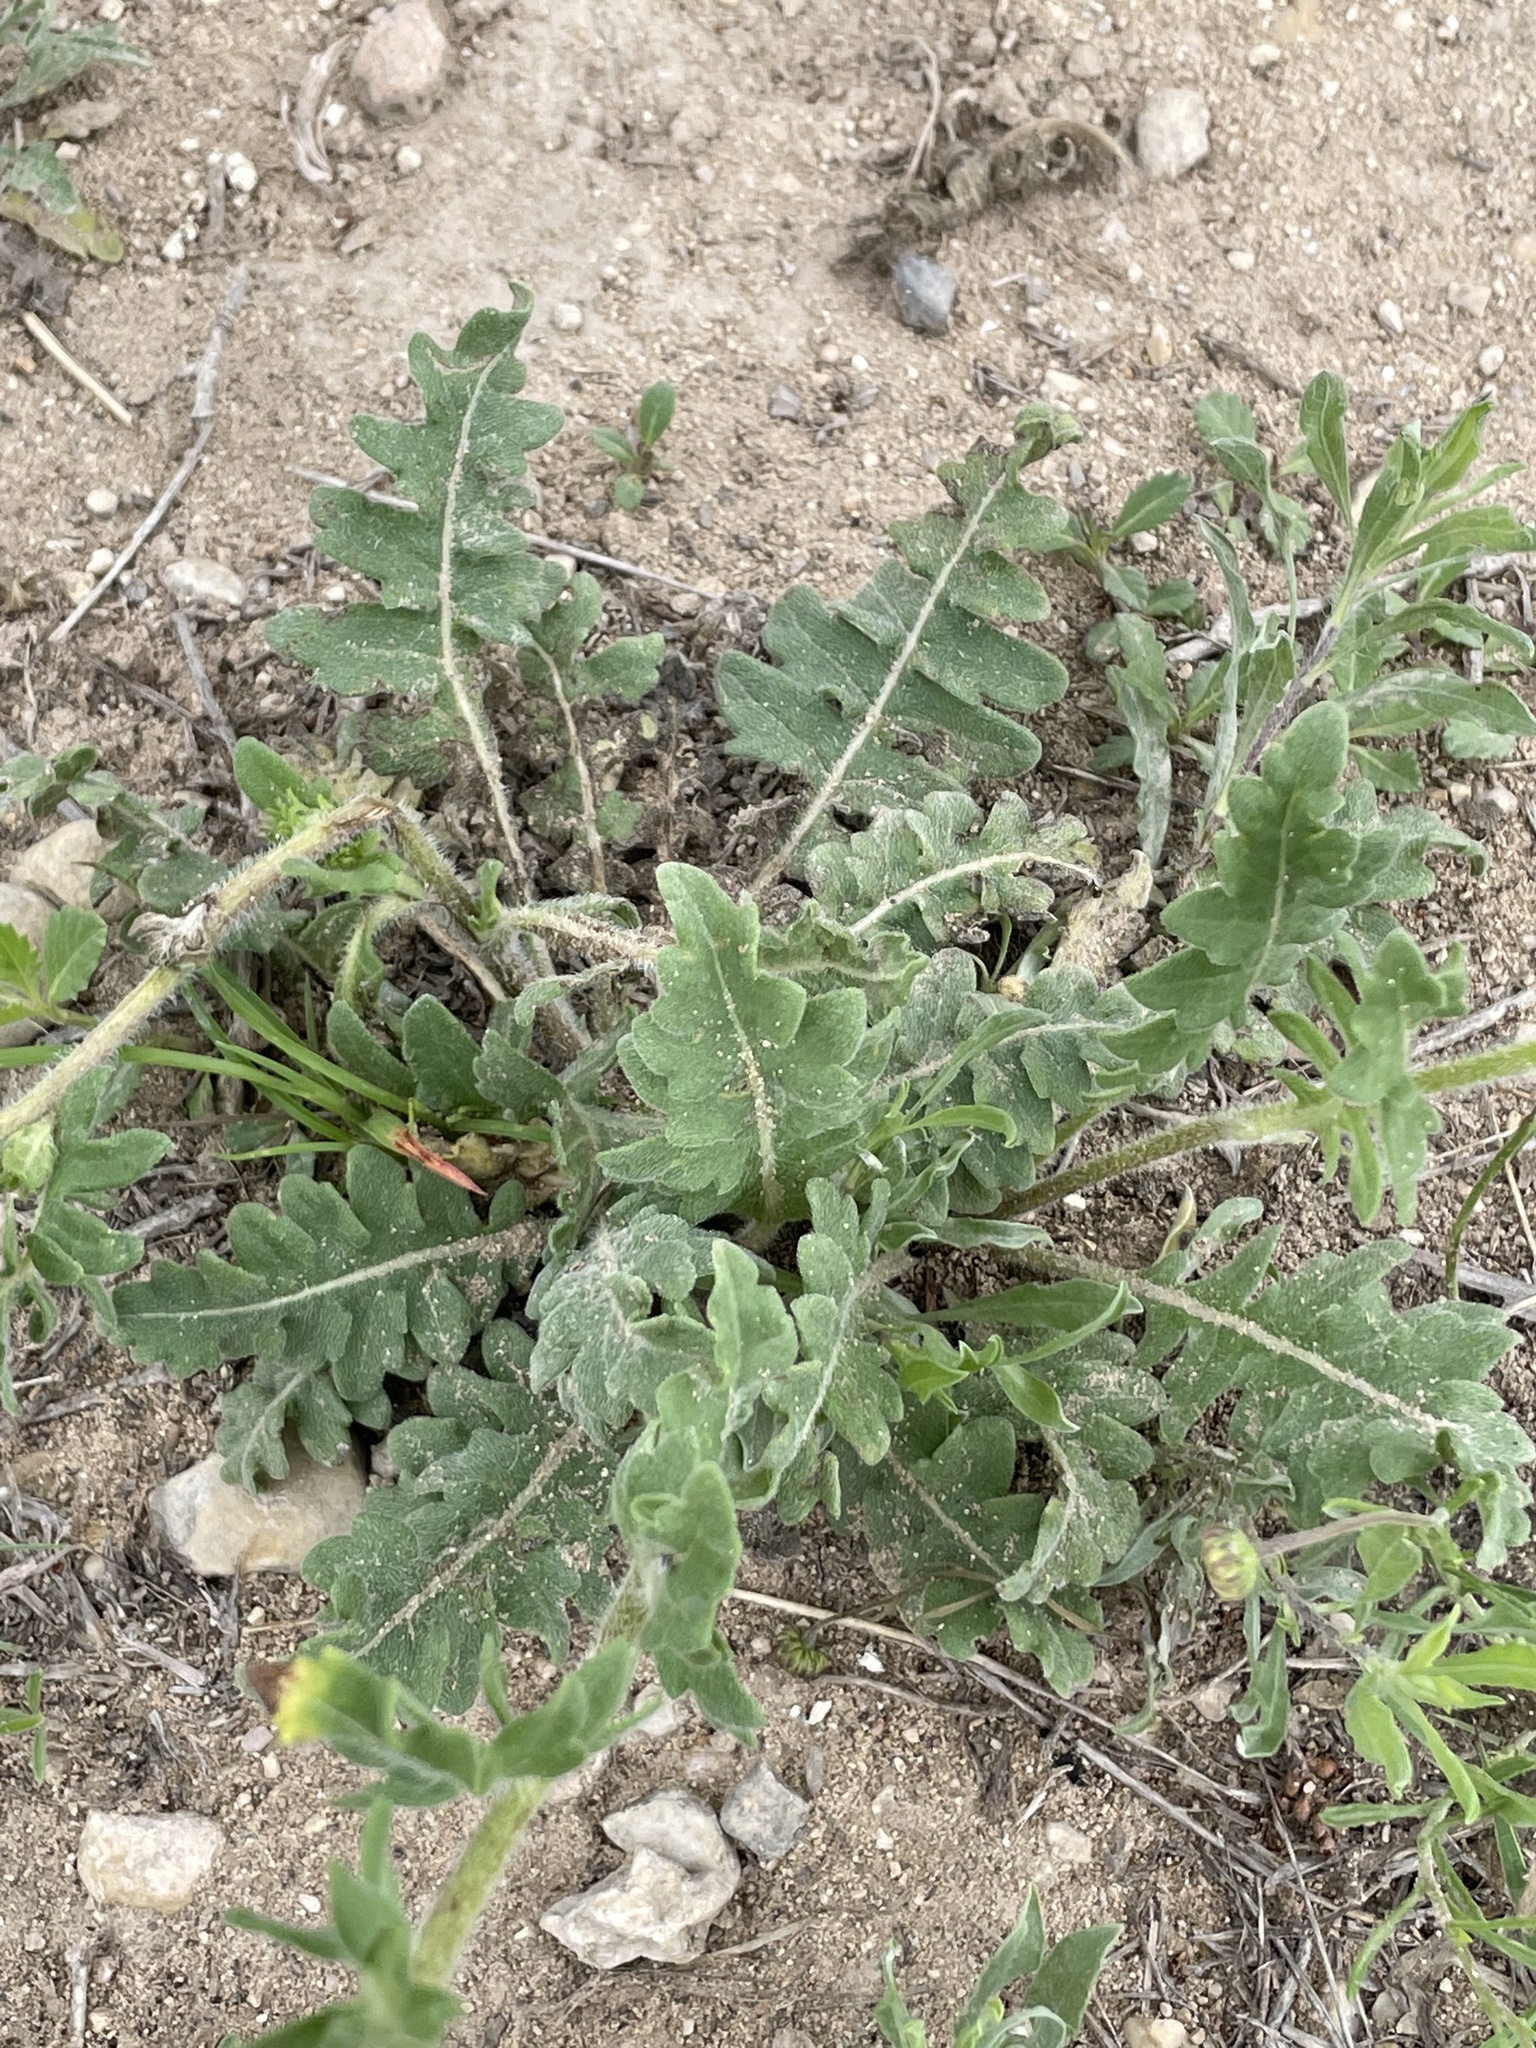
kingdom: Plantae
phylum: Tracheophyta
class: Magnoliopsida
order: Asterales
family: Asteraceae
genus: Engelmannia
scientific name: Engelmannia peristenia
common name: Engelmann's daisy
